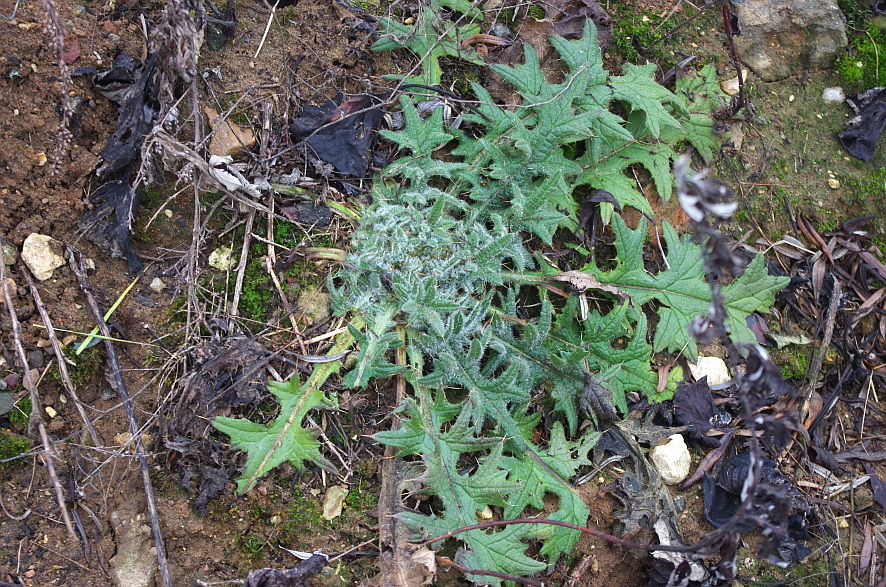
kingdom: Plantae
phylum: Tracheophyta
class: Magnoliopsida
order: Asterales
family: Asteraceae
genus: Cirsium
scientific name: Cirsium vulgare
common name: Bull thistle
